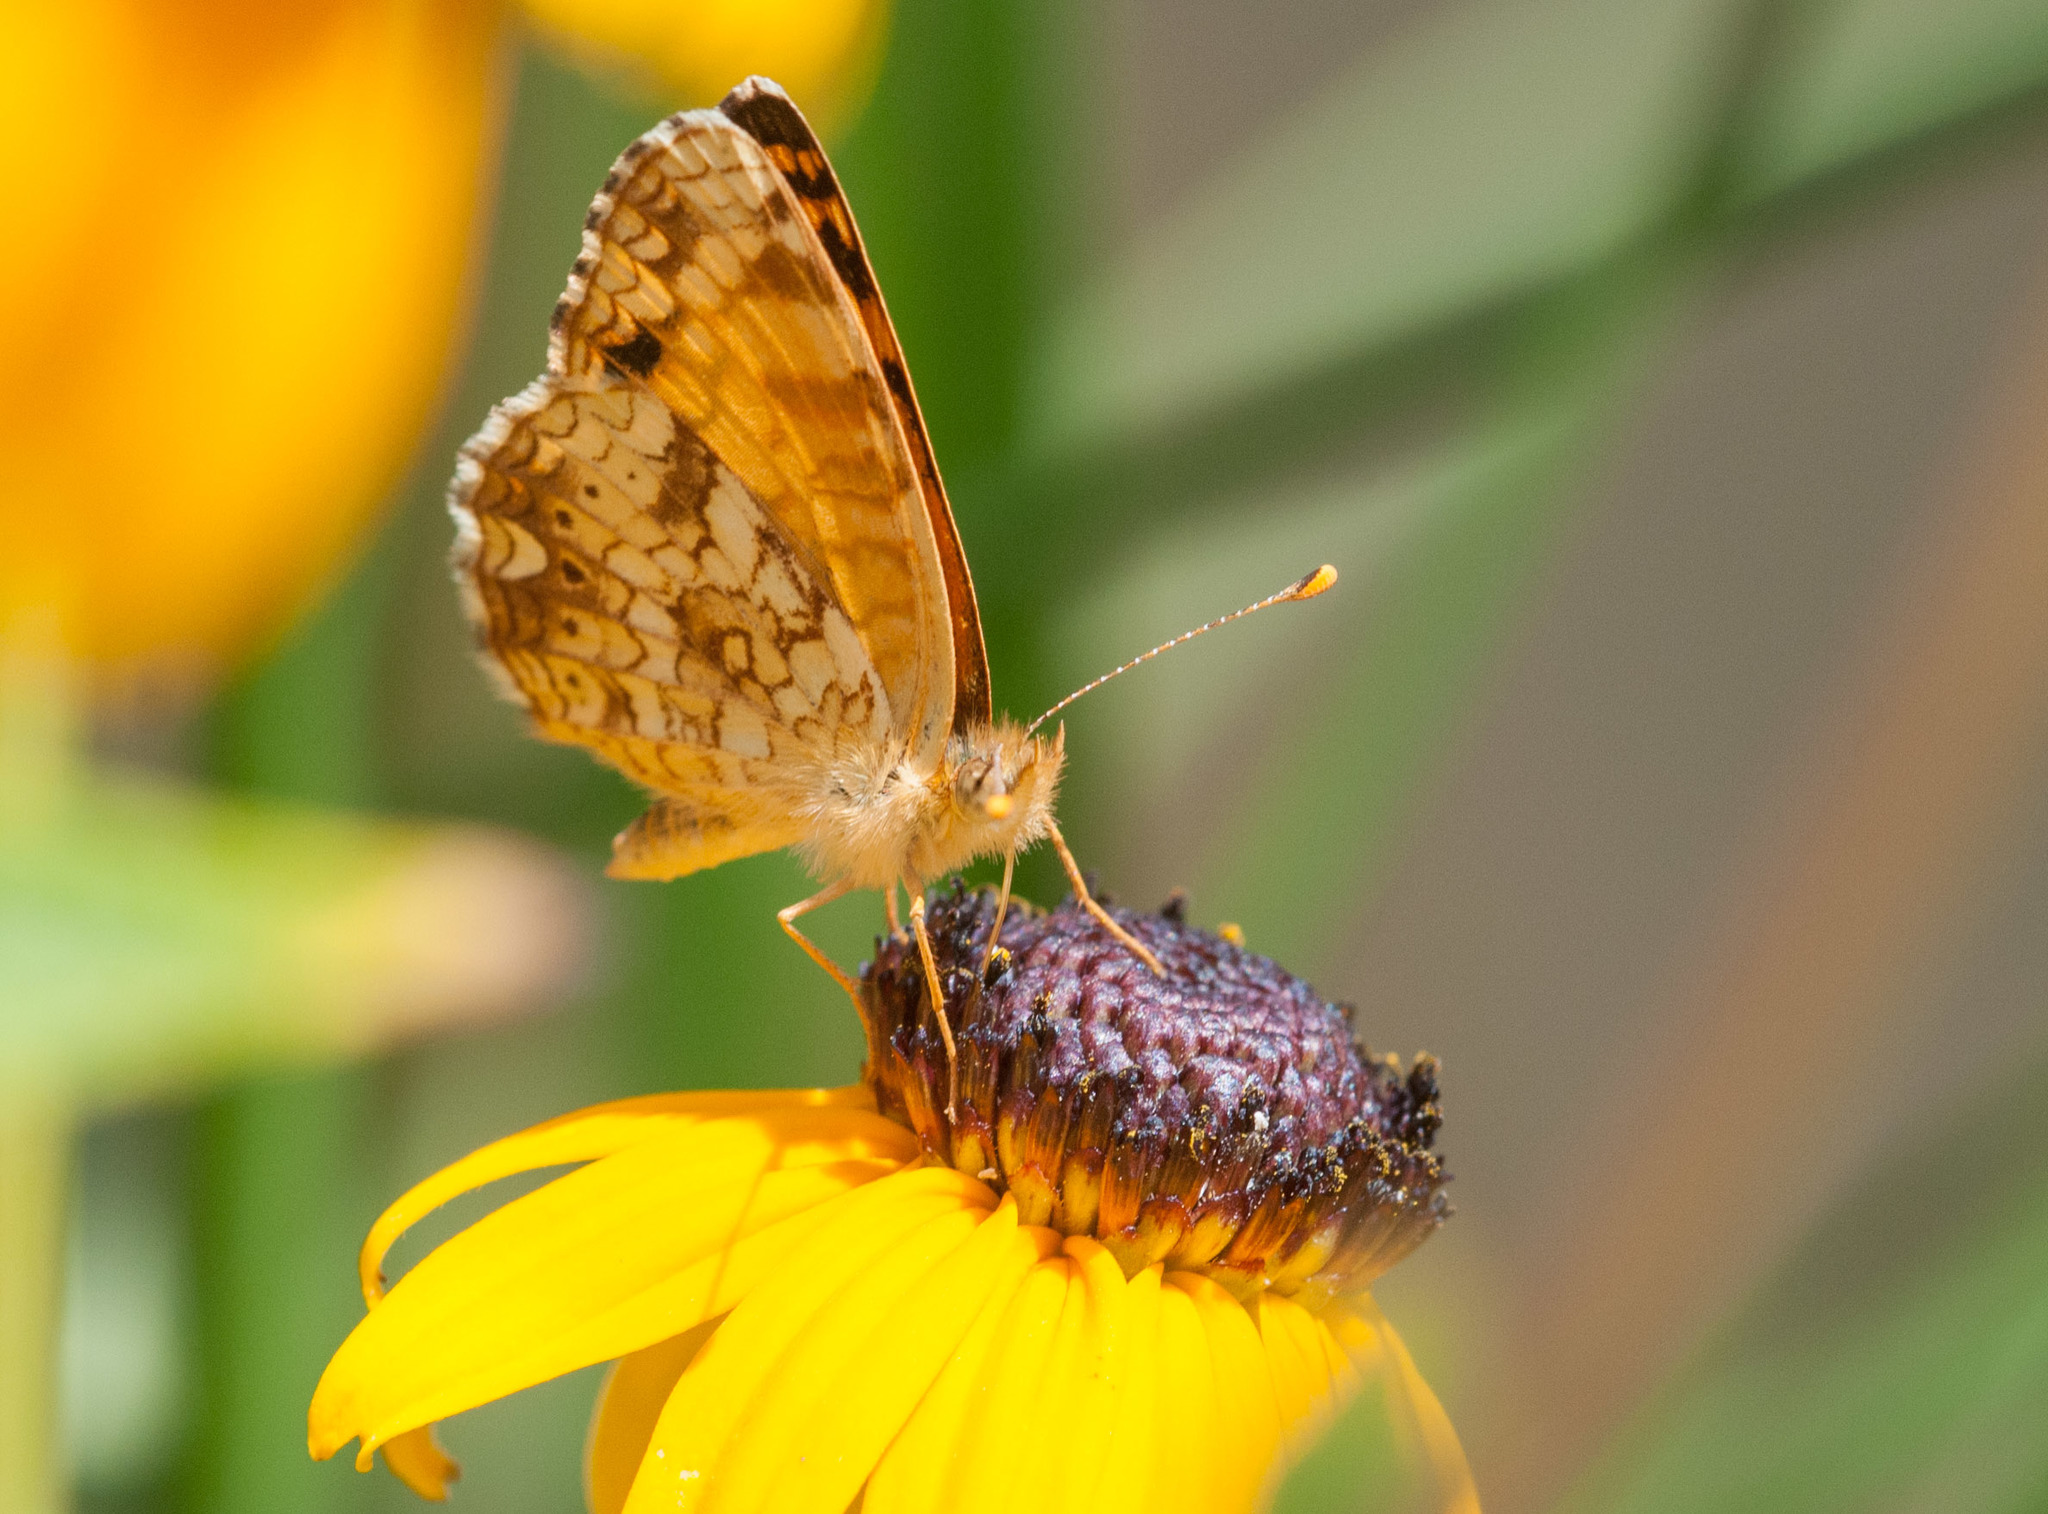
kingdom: Animalia
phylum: Arthropoda
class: Insecta
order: Lepidoptera
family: Nymphalidae
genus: Eresia
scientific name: Eresia aveyrona
